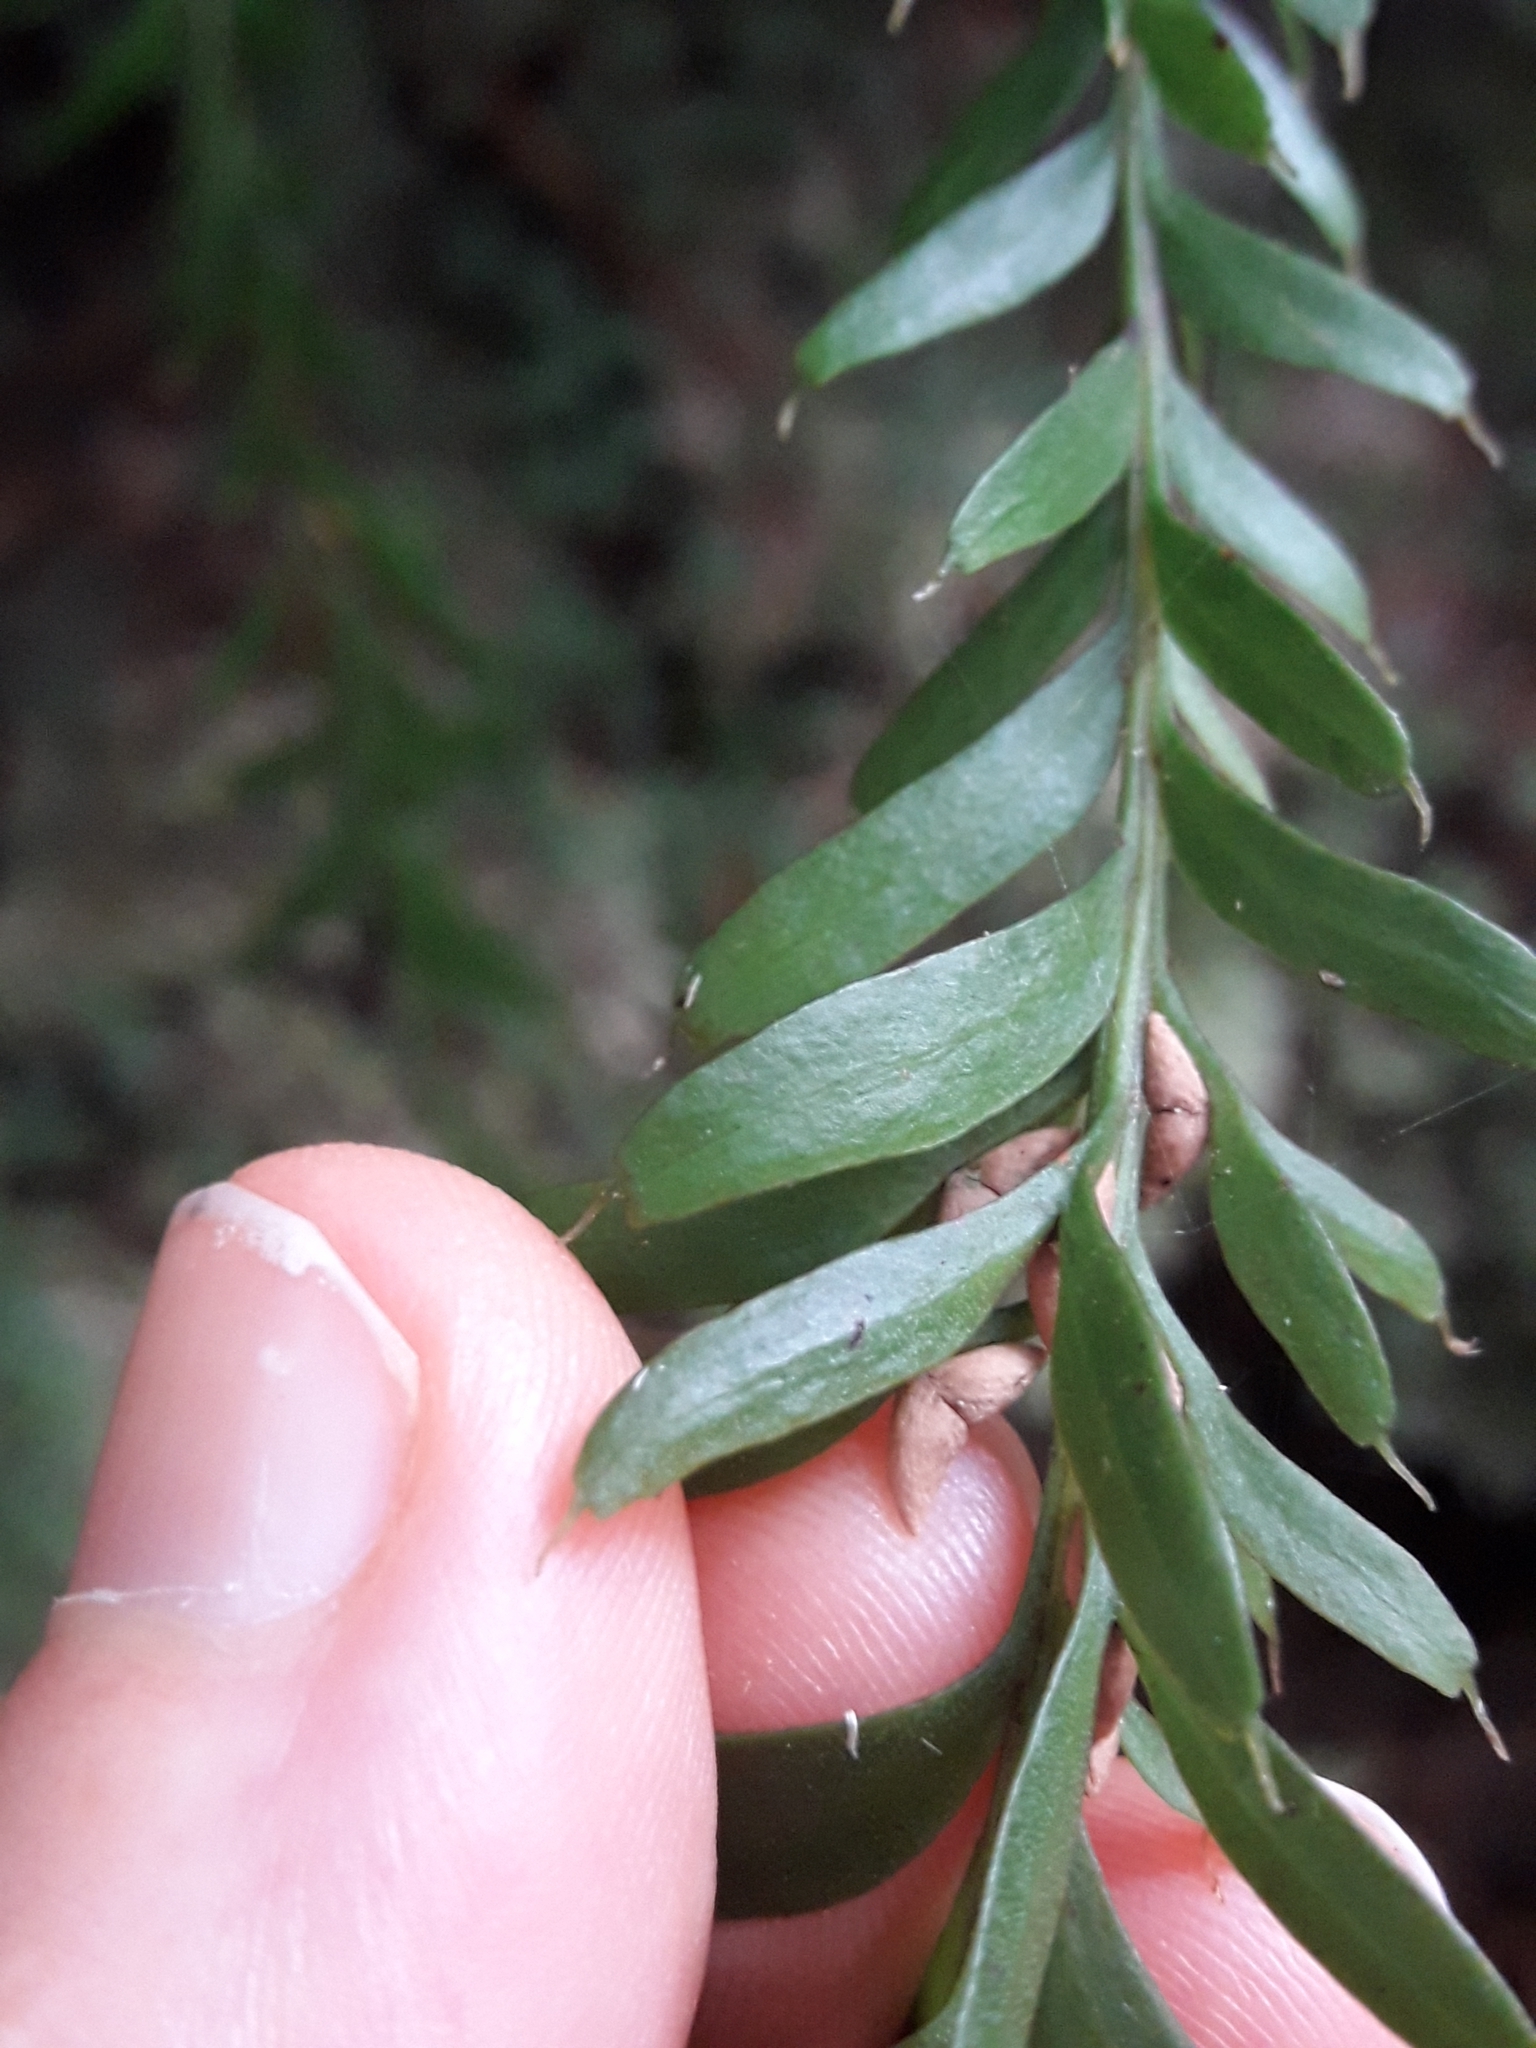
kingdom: Plantae
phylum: Tracheophyta
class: Polypodiopsida
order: Psilotales
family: Psilotaceae
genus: Tmesipteris
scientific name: Tmesipteris tannensis
